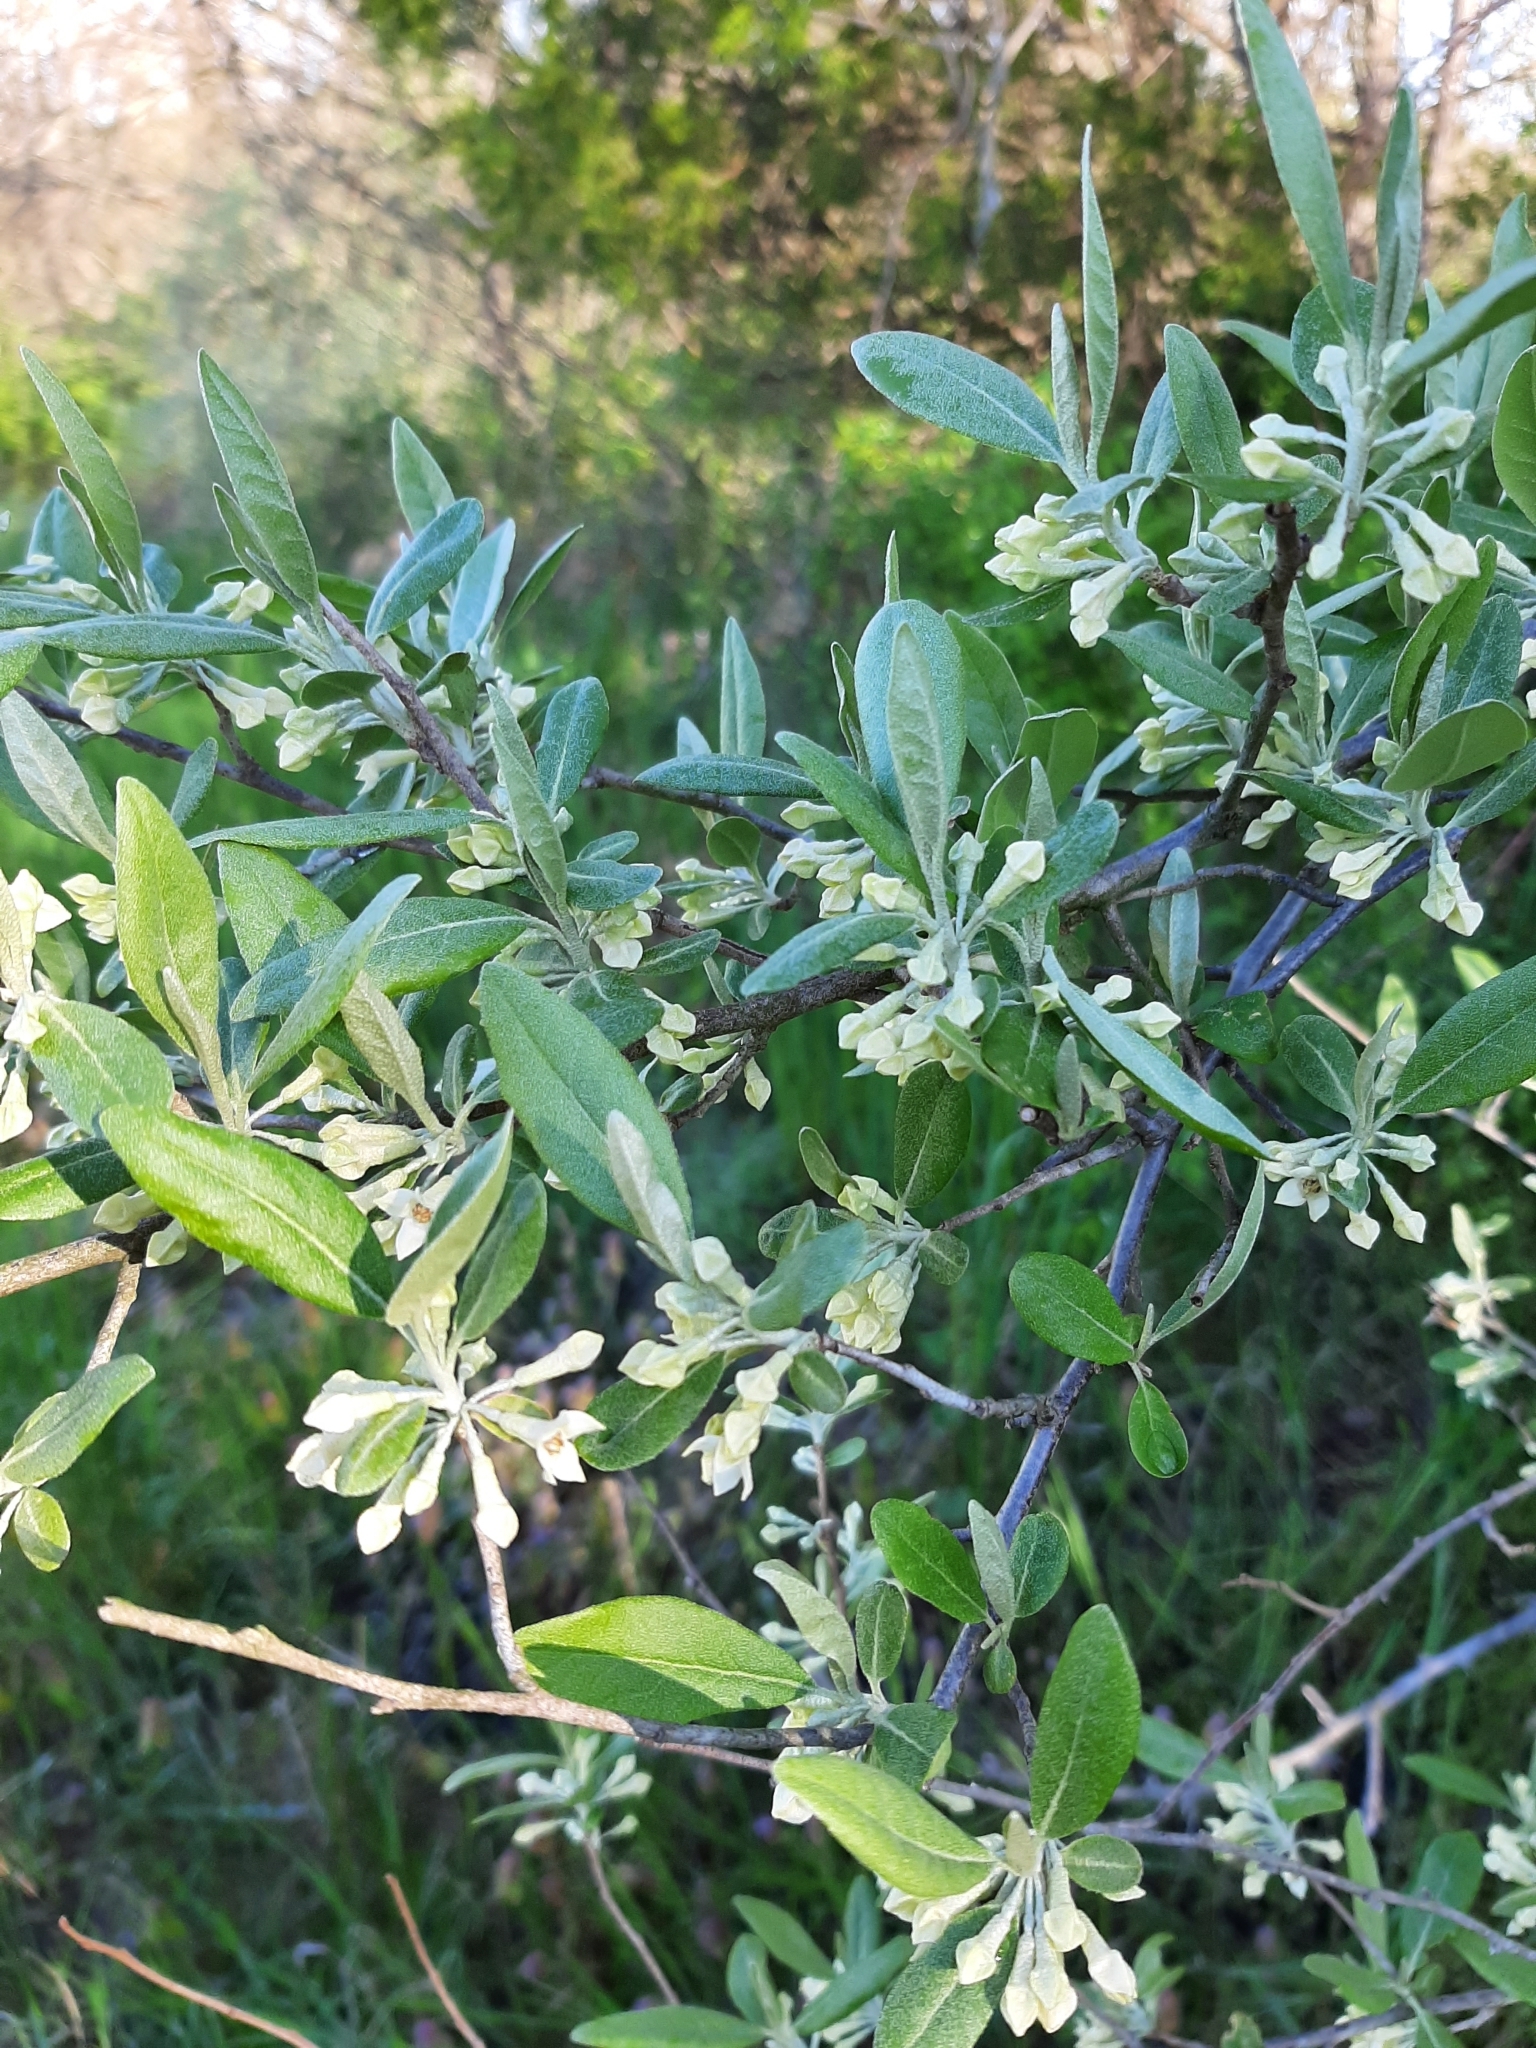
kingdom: Plantae
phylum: Tracheophyta
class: Magnoliopsida
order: Rosales
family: Elaeagnaceae
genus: Elaeagnus
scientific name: Elaeagnus umbellata
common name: Autumn olive
